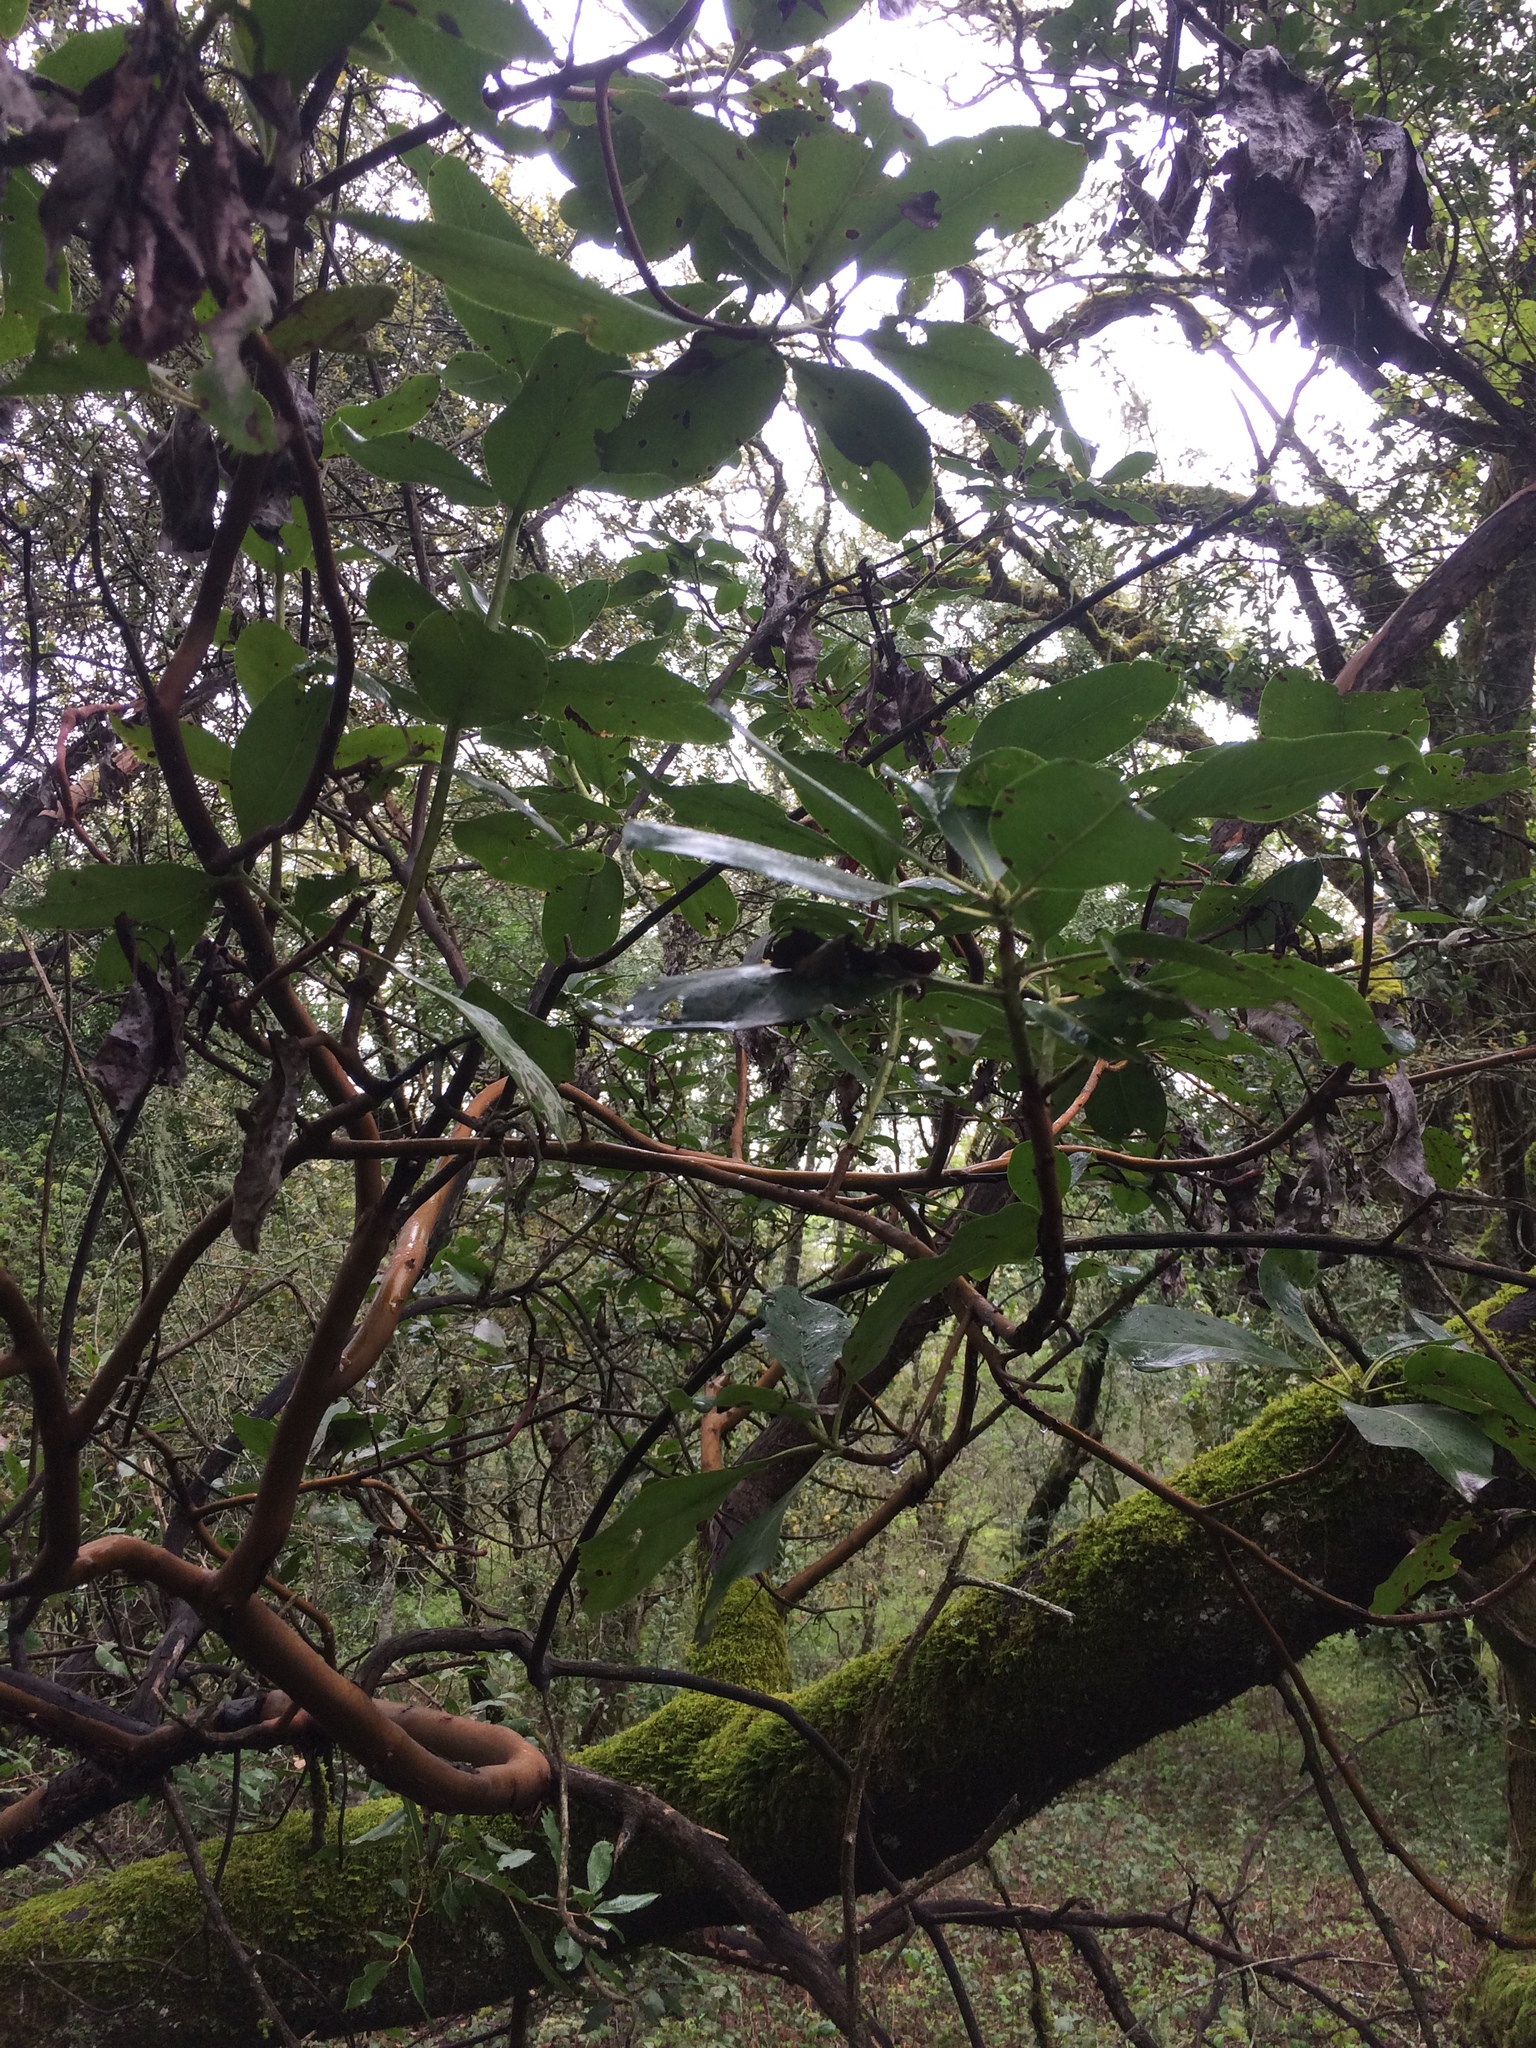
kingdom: Plantae
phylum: Tracheophyta
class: Magnoliopsida
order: Ericales
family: Ericaceae
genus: Arbutus
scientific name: Arbutus menziesii
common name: Pacific madrone
